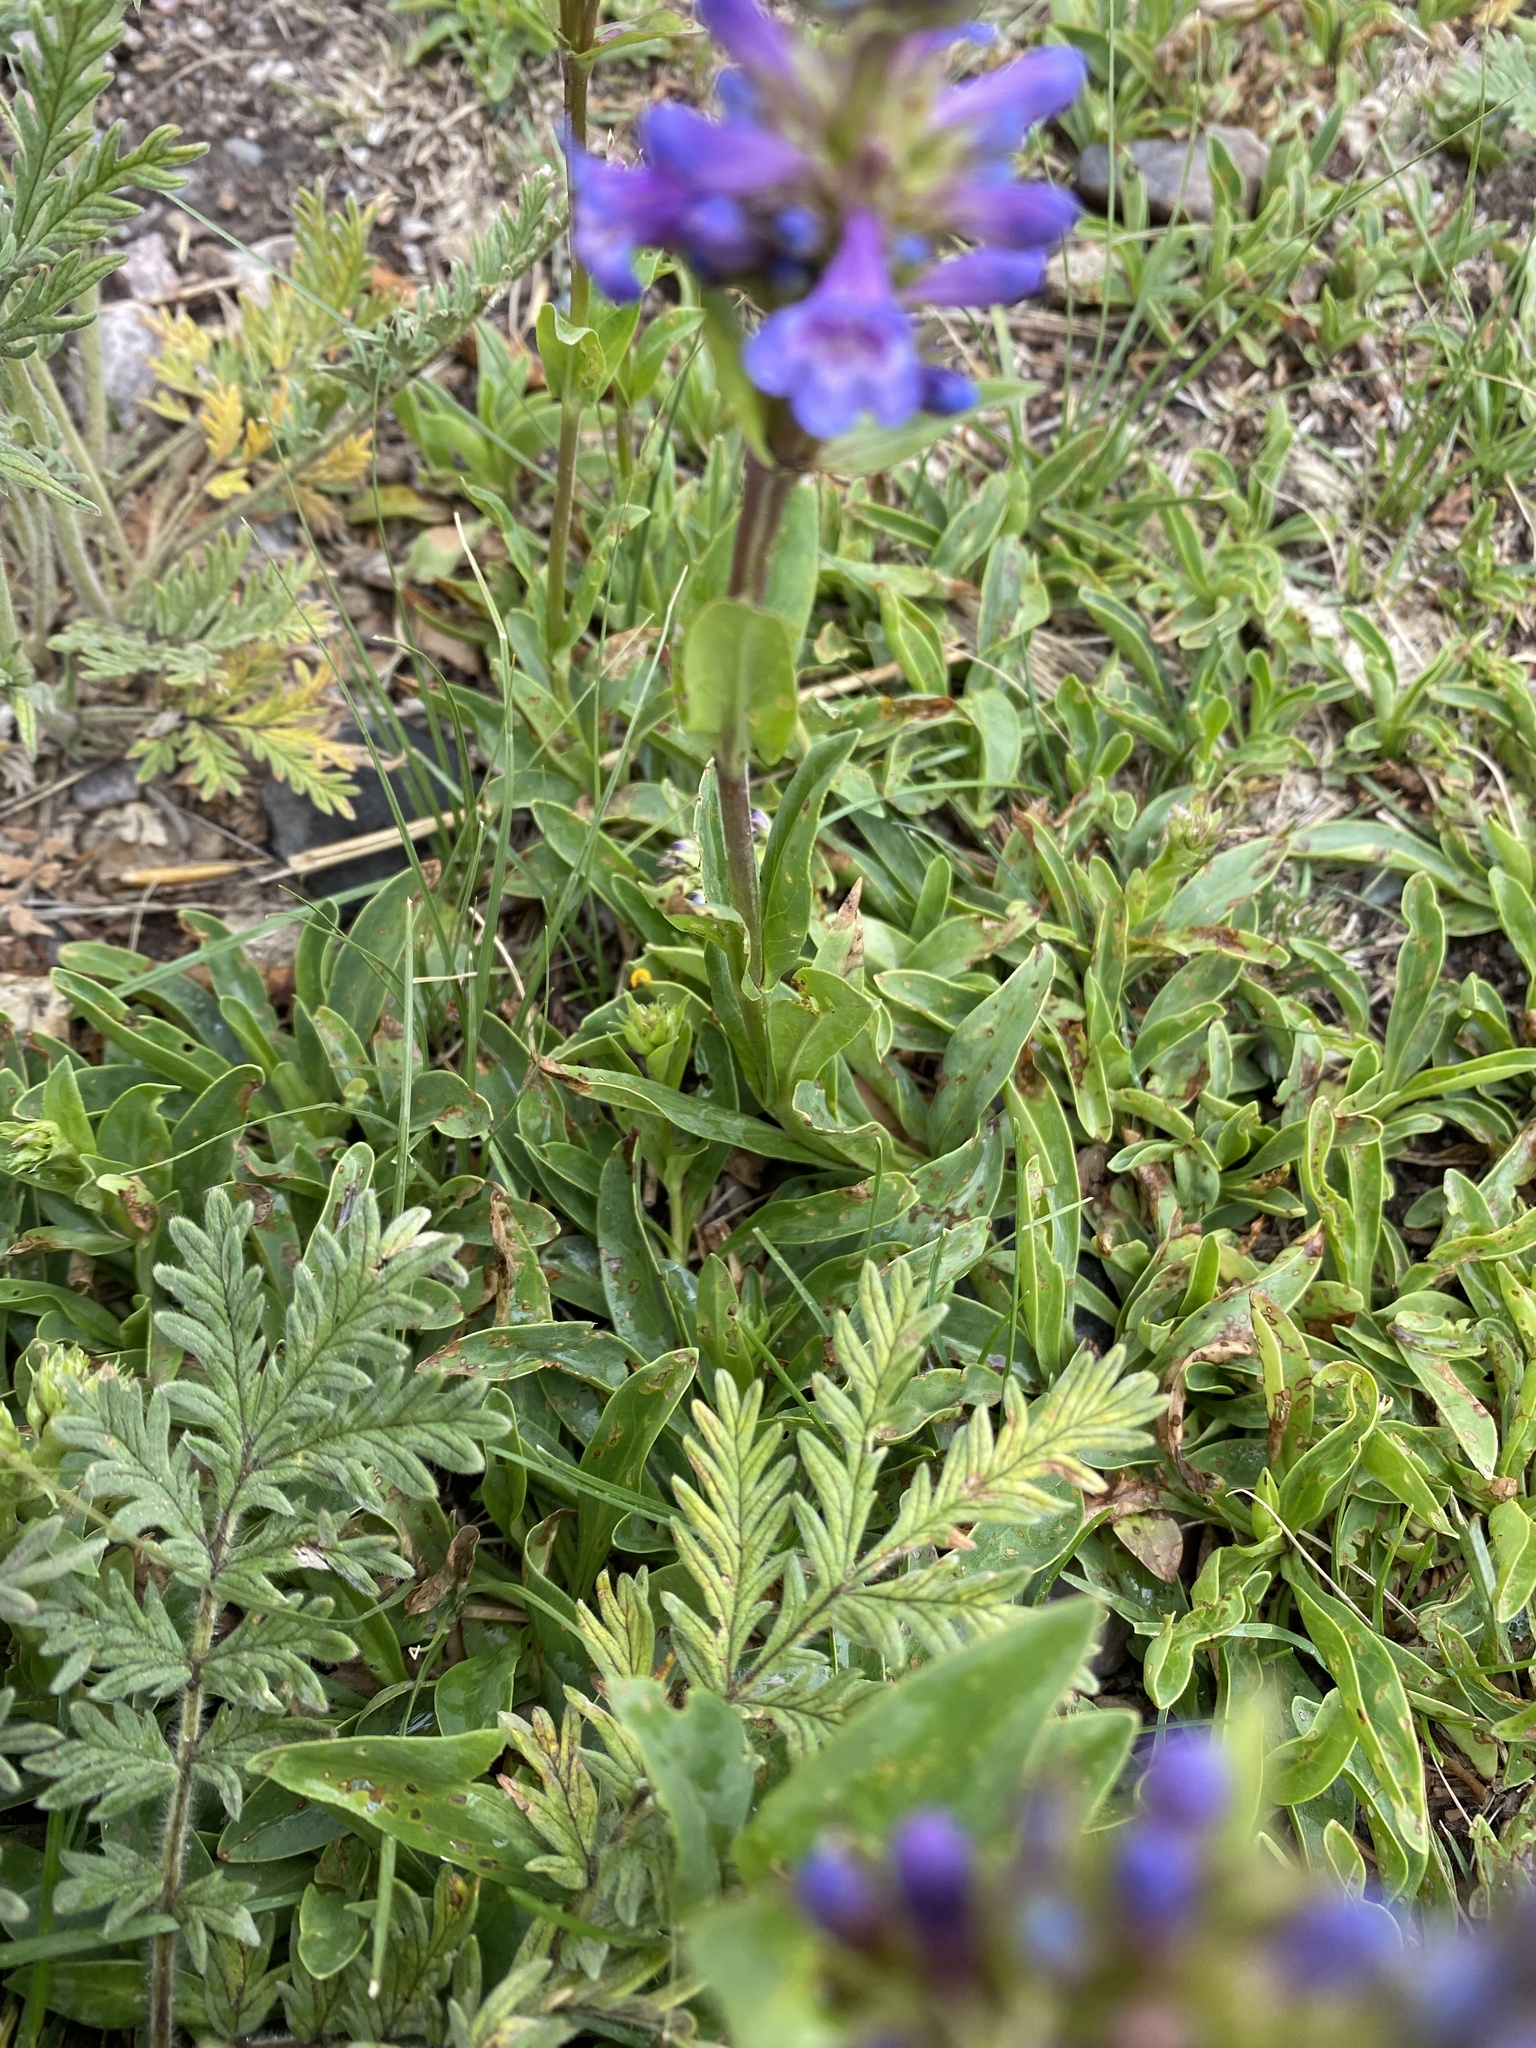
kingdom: Plantae
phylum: Tracheophyta
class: Magnoliopsida
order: Lamiales
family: Plantaginaceae
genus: Penstemon
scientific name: Penstemon rydbergii
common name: Rydberg's beardtongue
